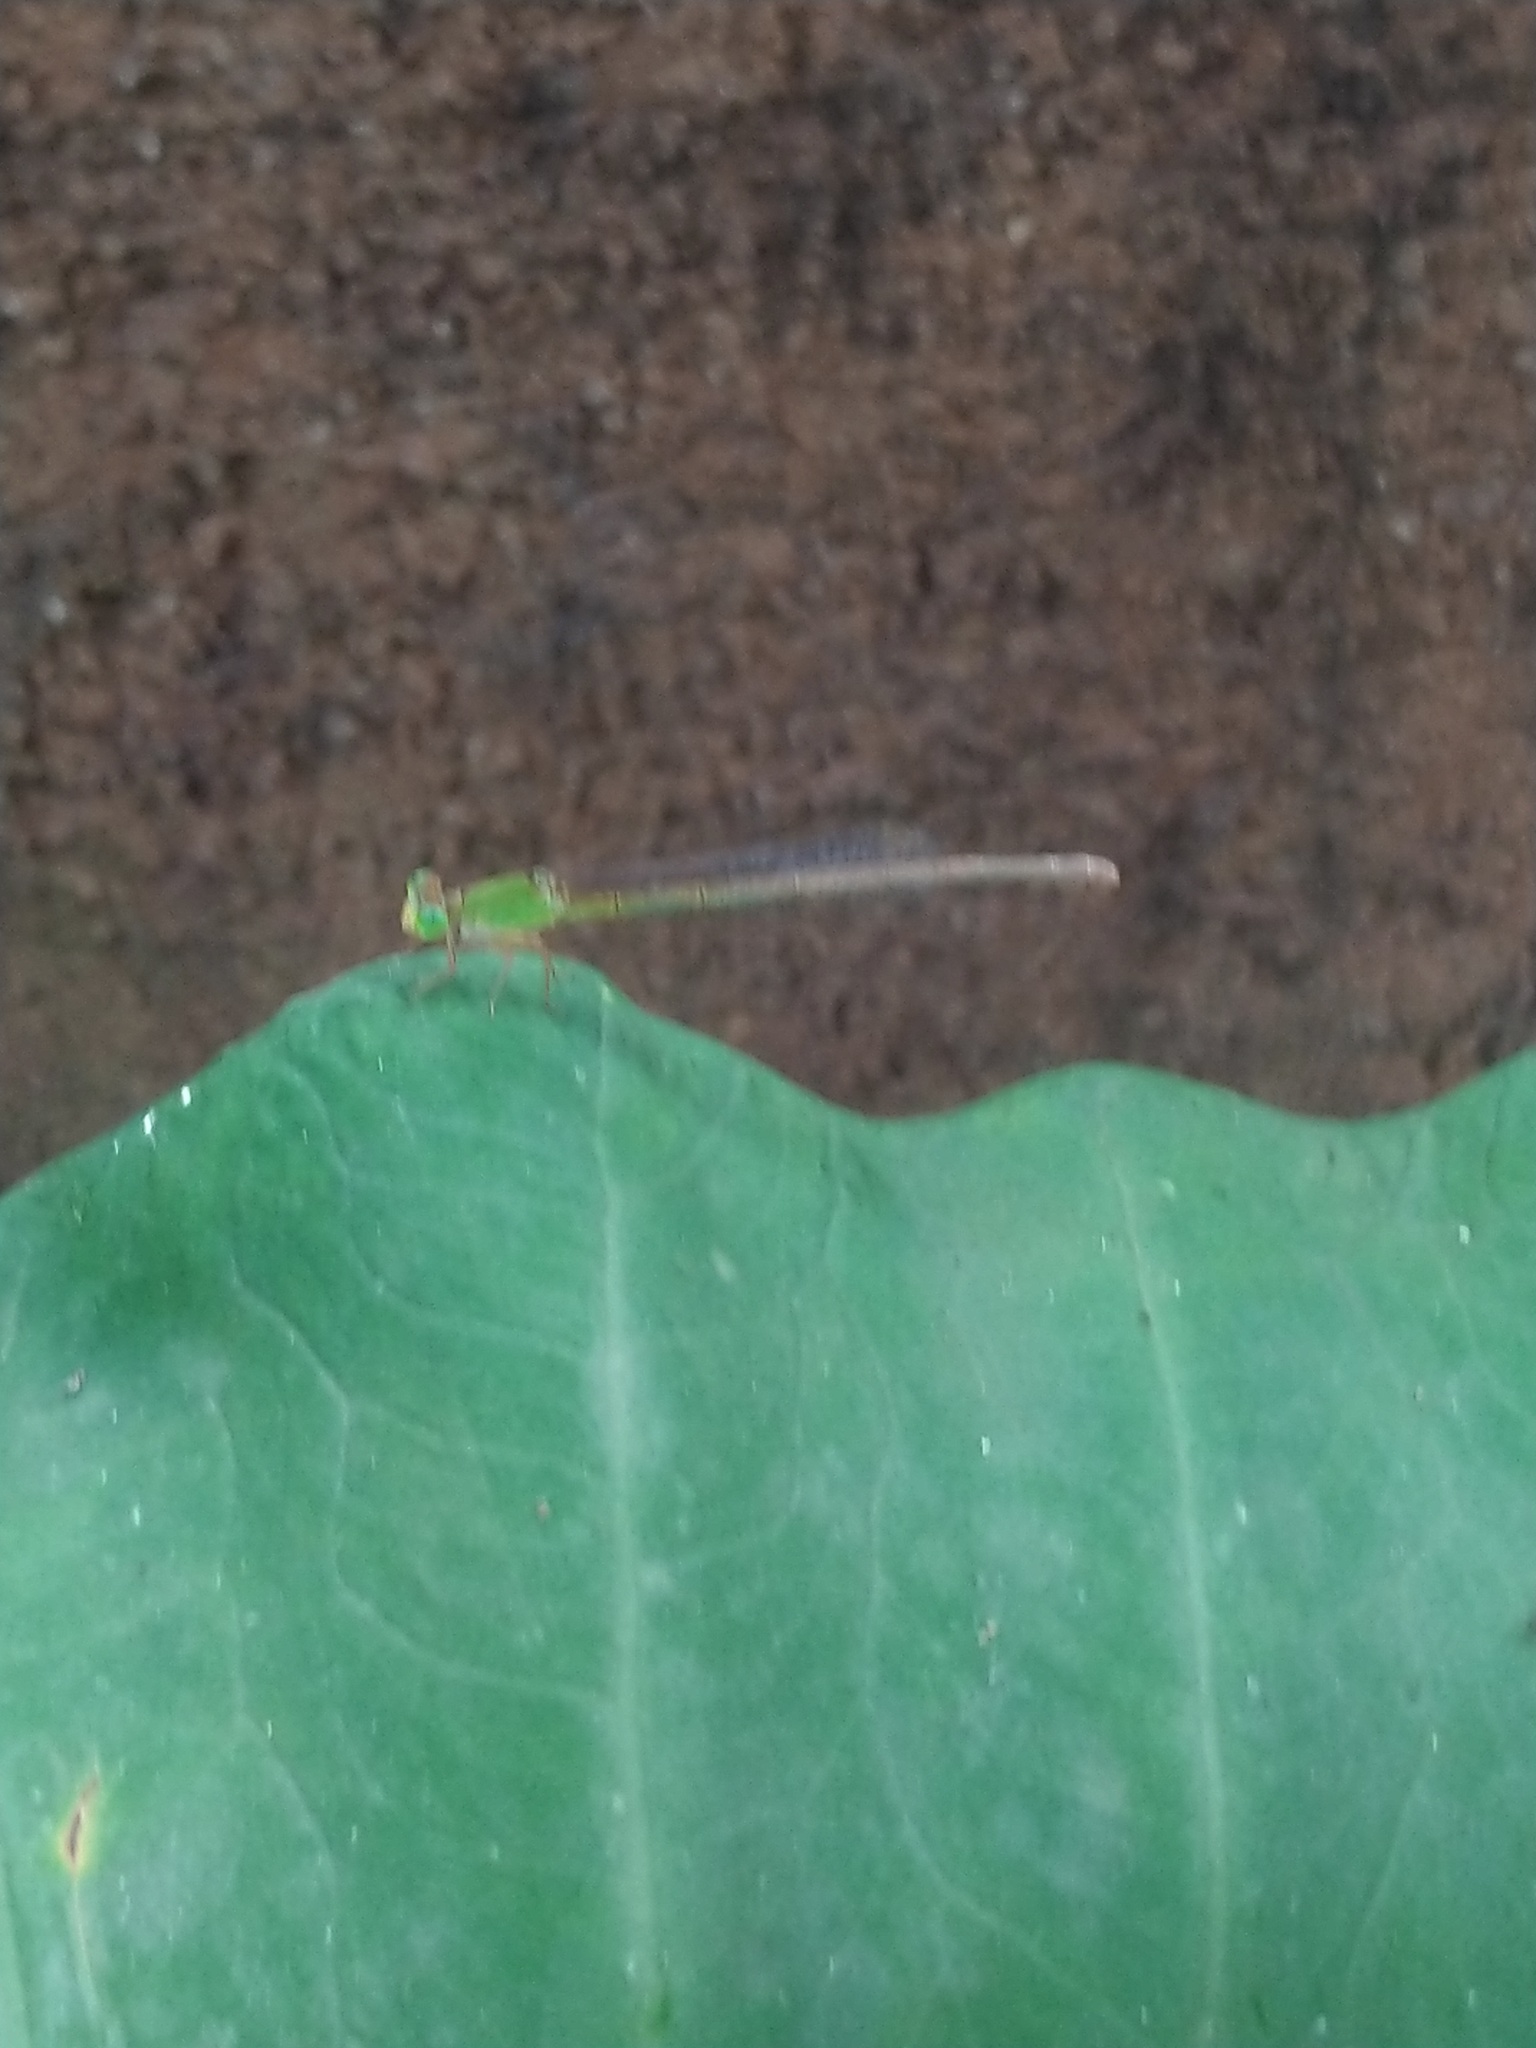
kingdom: Animalia
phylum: Arthropoda
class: Insecta
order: Odonata
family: Coenagrionidae
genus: Ceriagrion
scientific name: Ceriagrion coromandelianum
